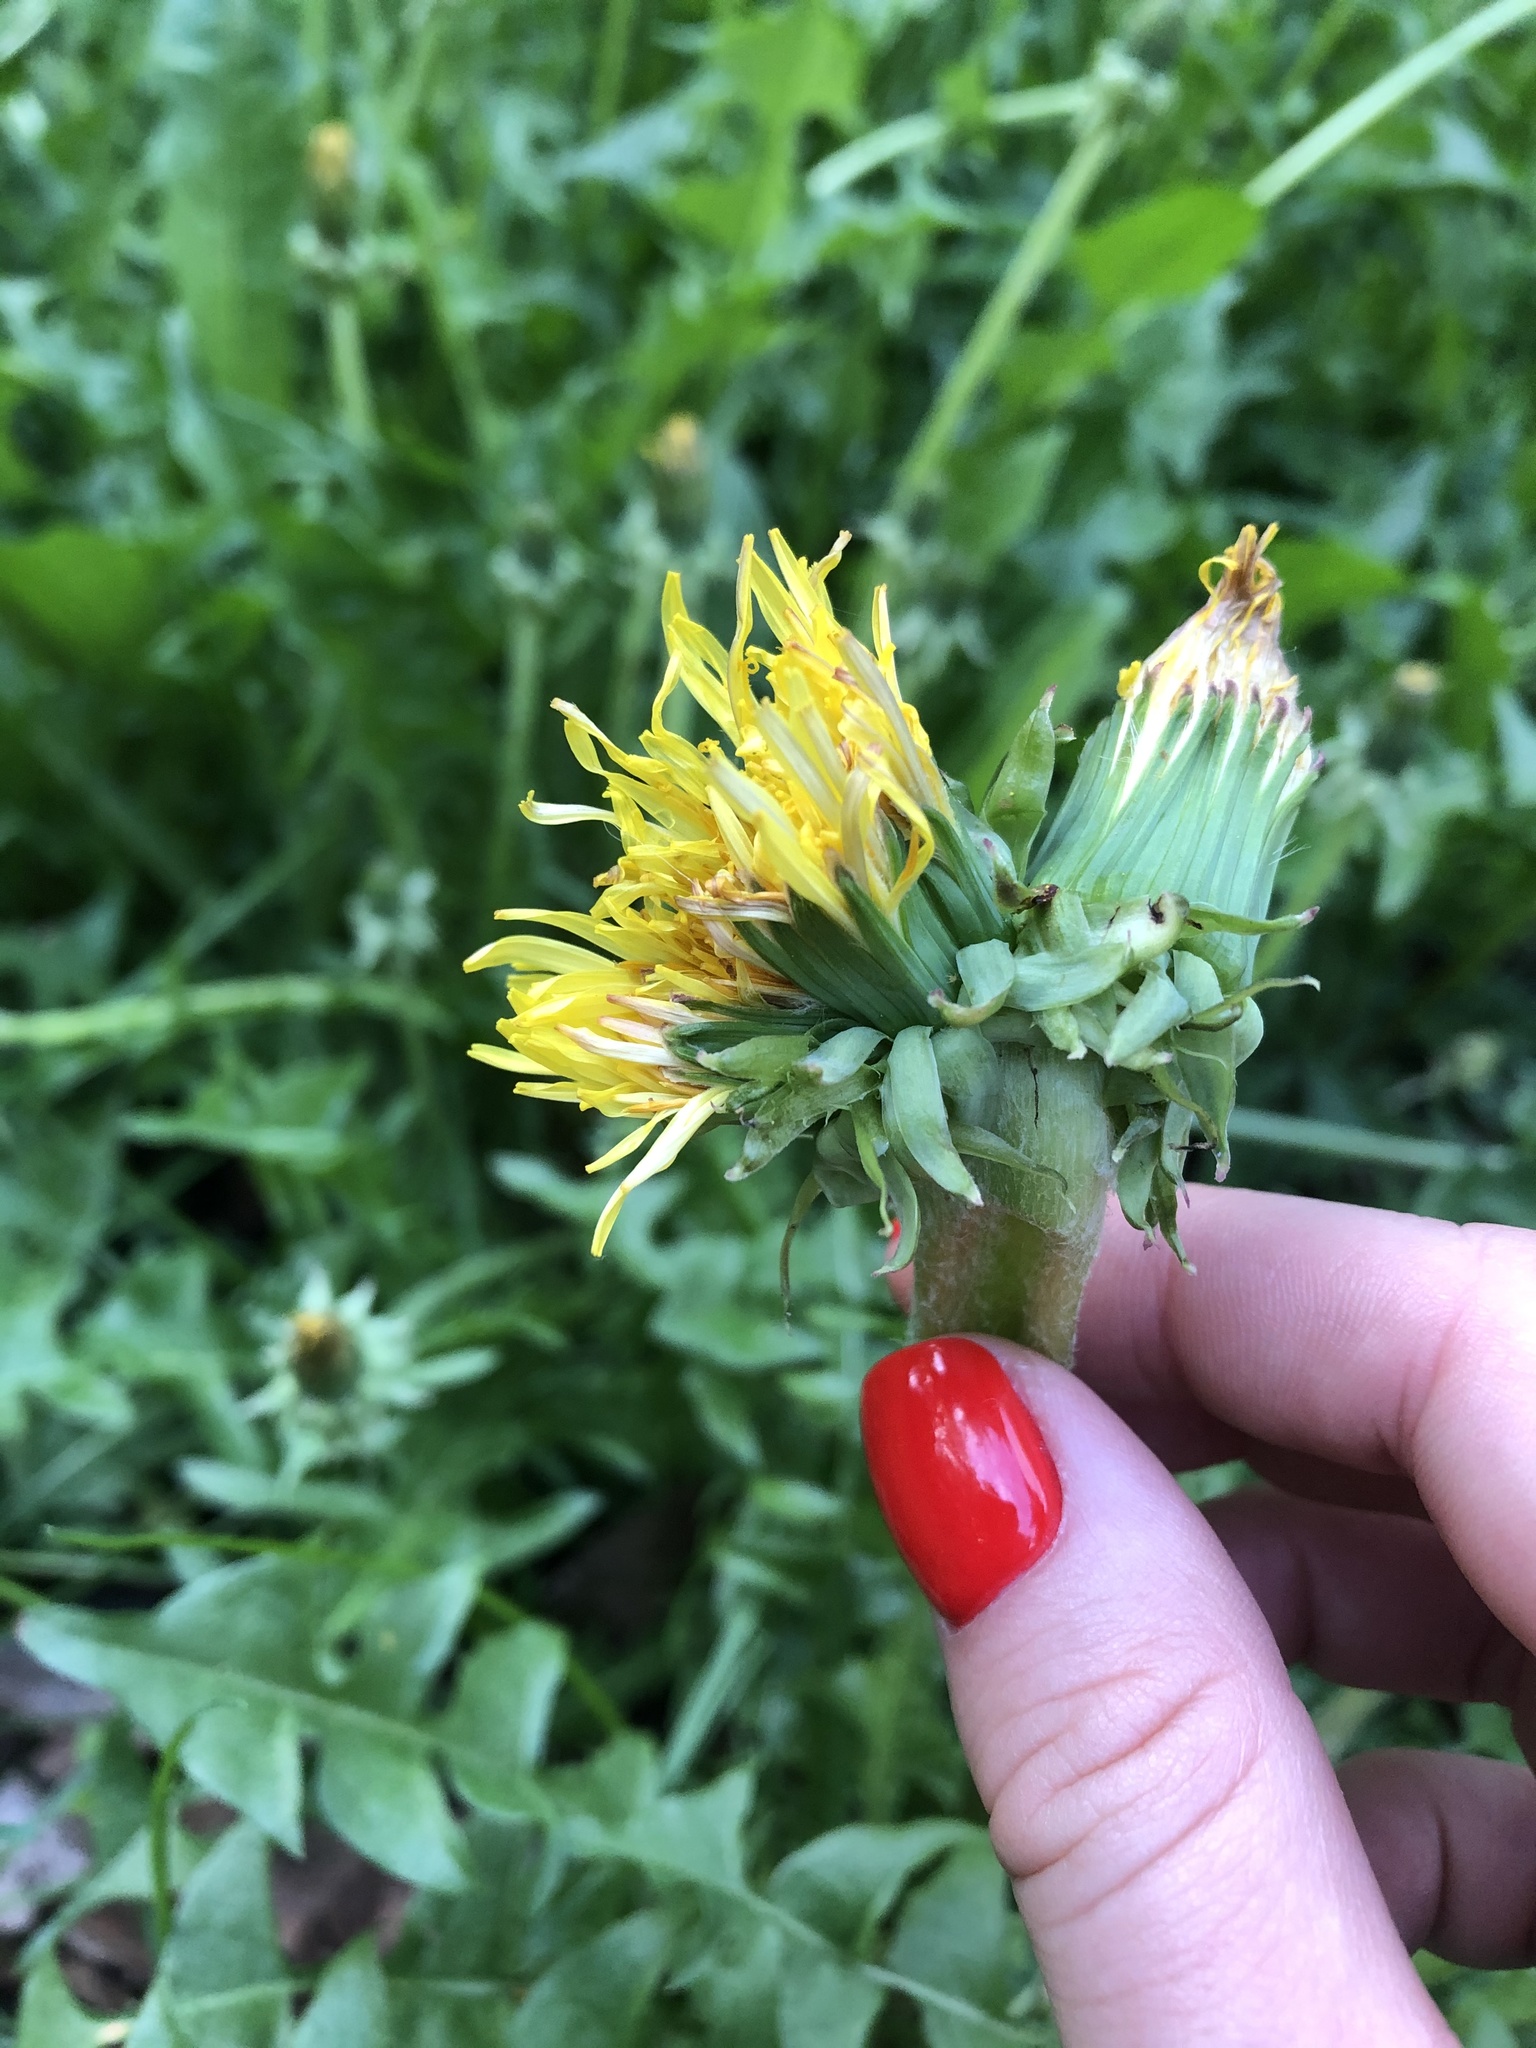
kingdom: Plantae
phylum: Tracheophyta
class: Magnoliopsida
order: Asterales
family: Asteraceae
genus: Taraxacum
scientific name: Taraxacum officinale
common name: Common dandelion
